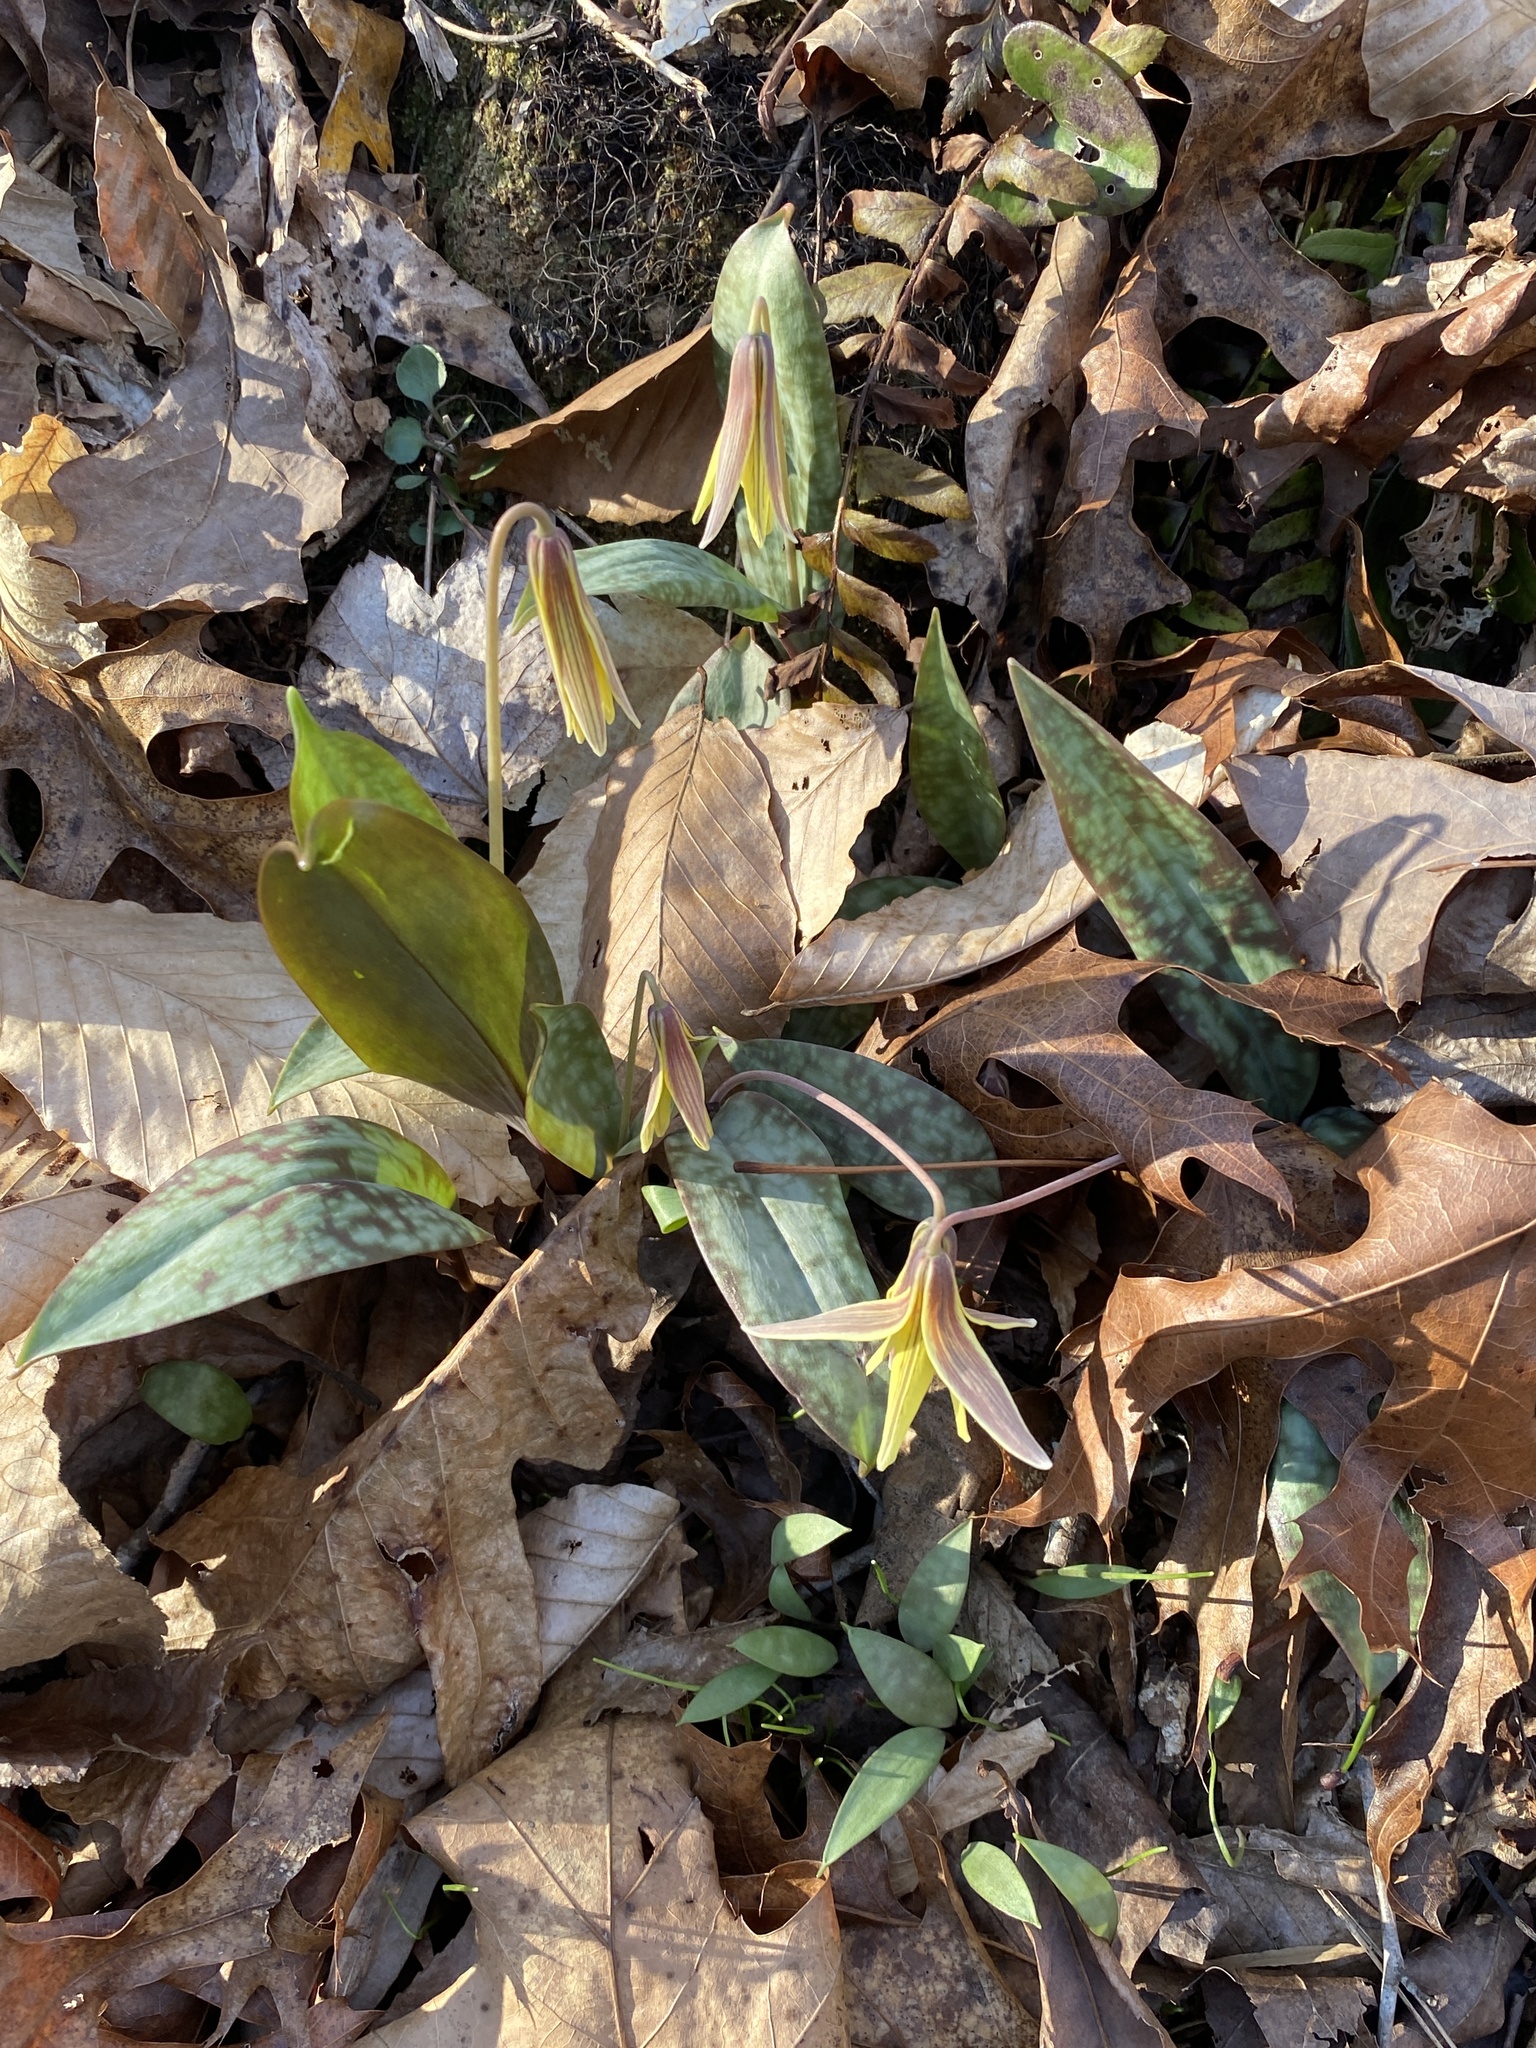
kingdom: Plantae
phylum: Tracheophyta
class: Liliopsida
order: Liliales
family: Liliaceae
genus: Erythronium
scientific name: Erythronium umbilicatum
